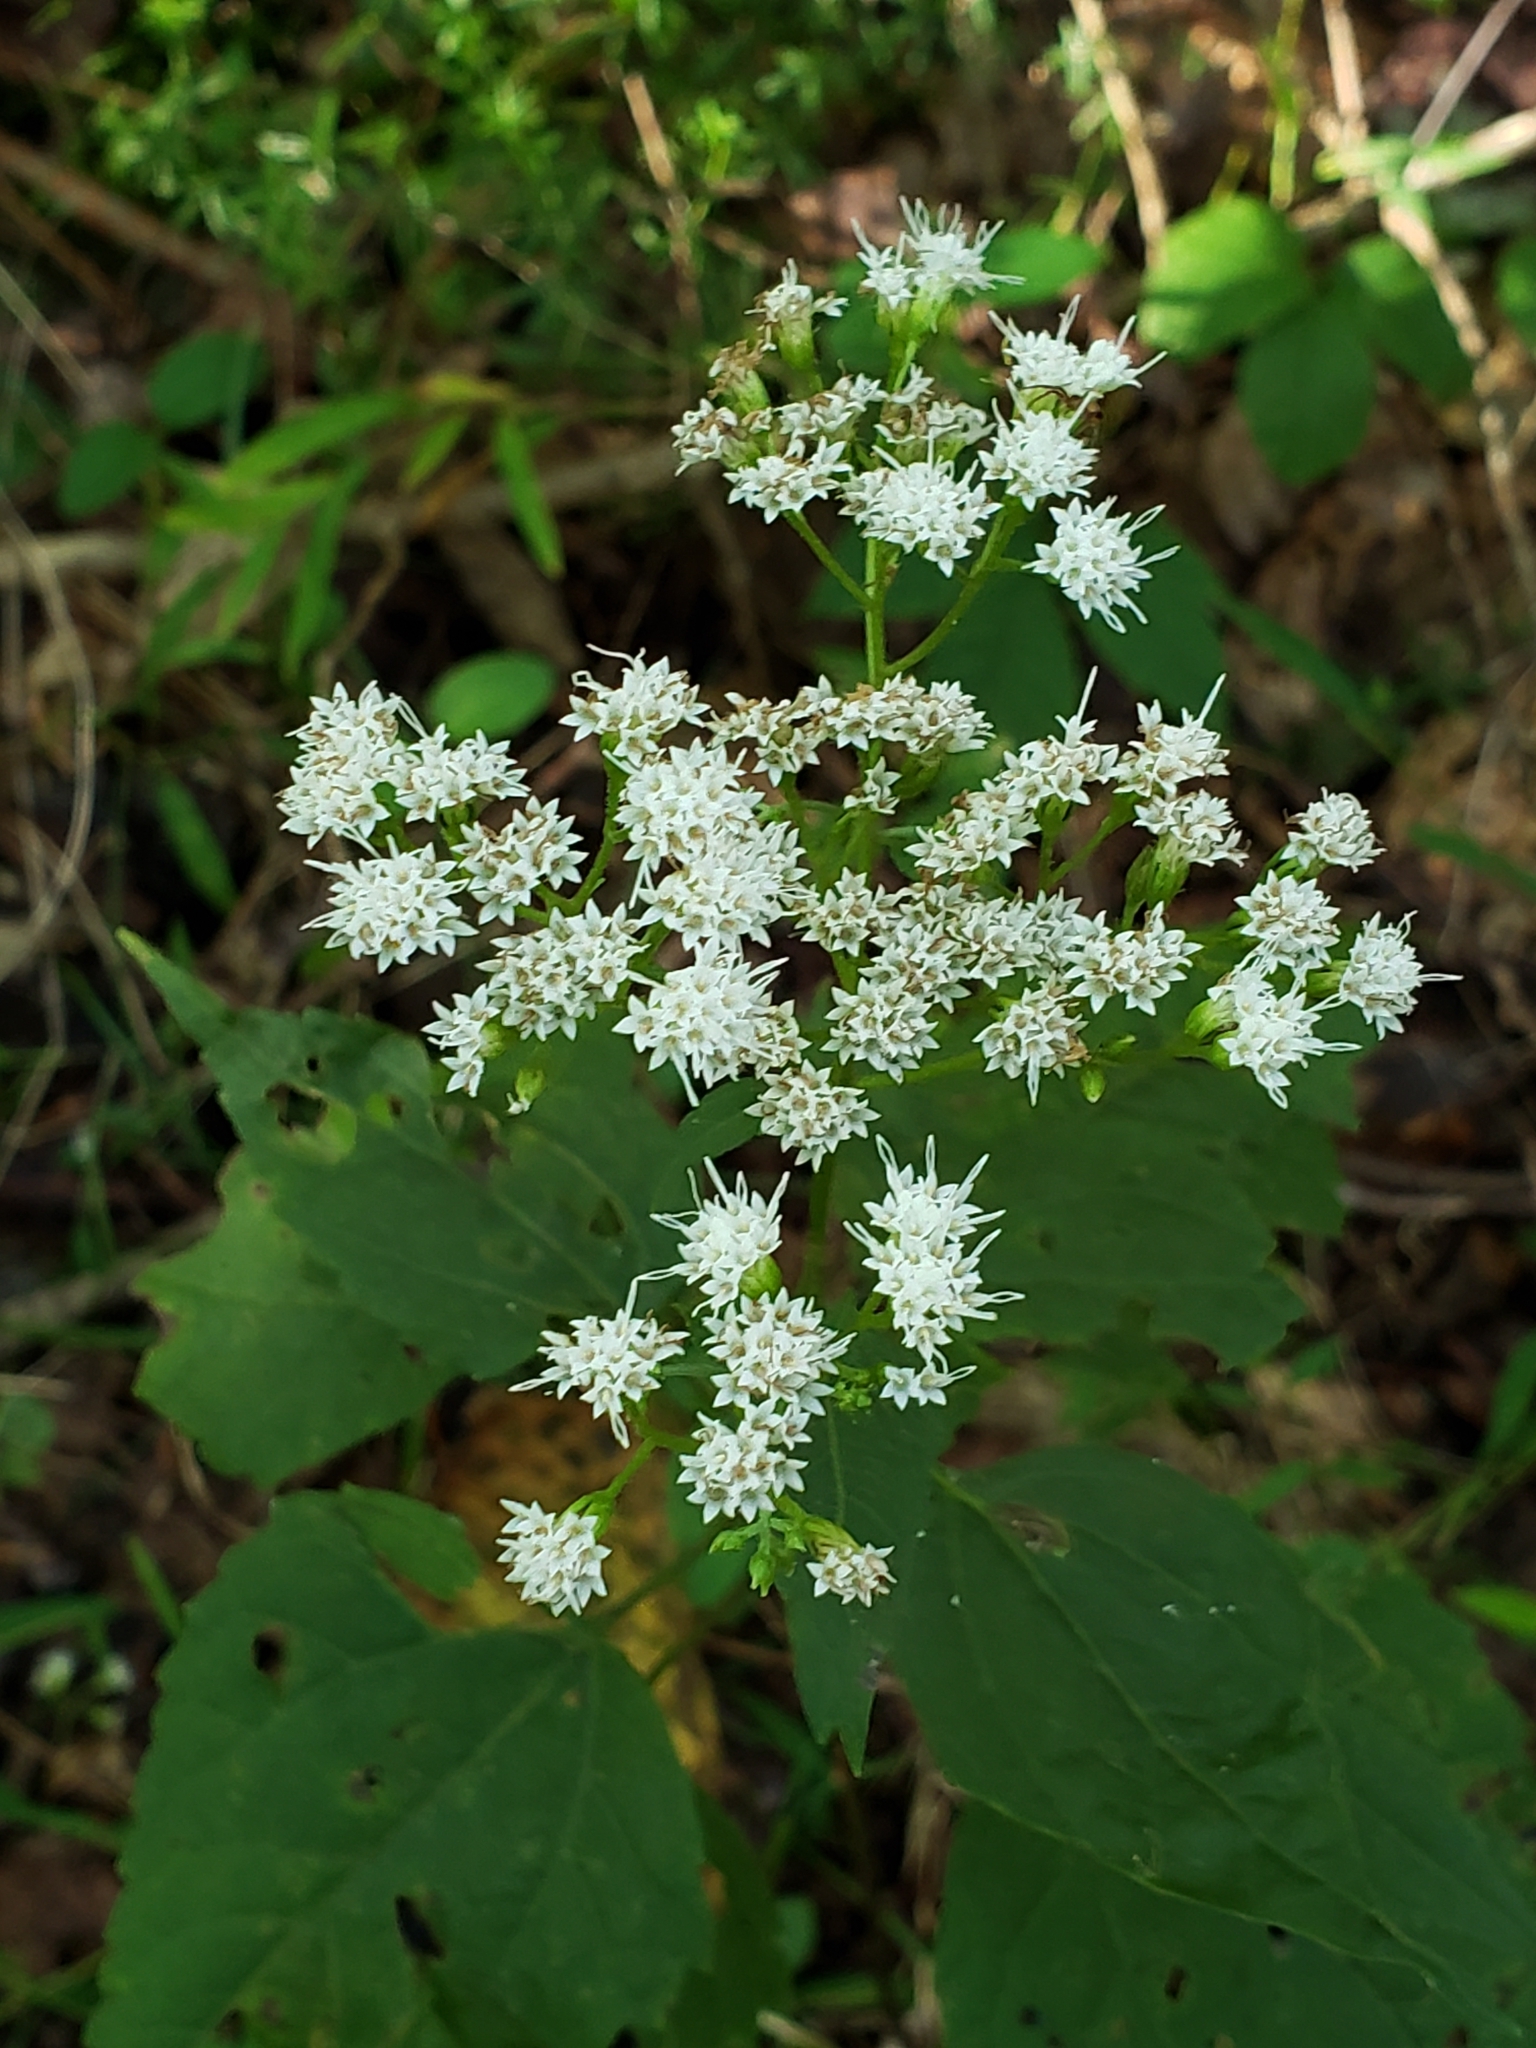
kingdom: Plantae
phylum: Tracheophyta
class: Magnoliopsida
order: Asterales
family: Asteraceae
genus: Ageratina
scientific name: Ageratina altissima
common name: White snakeroot
